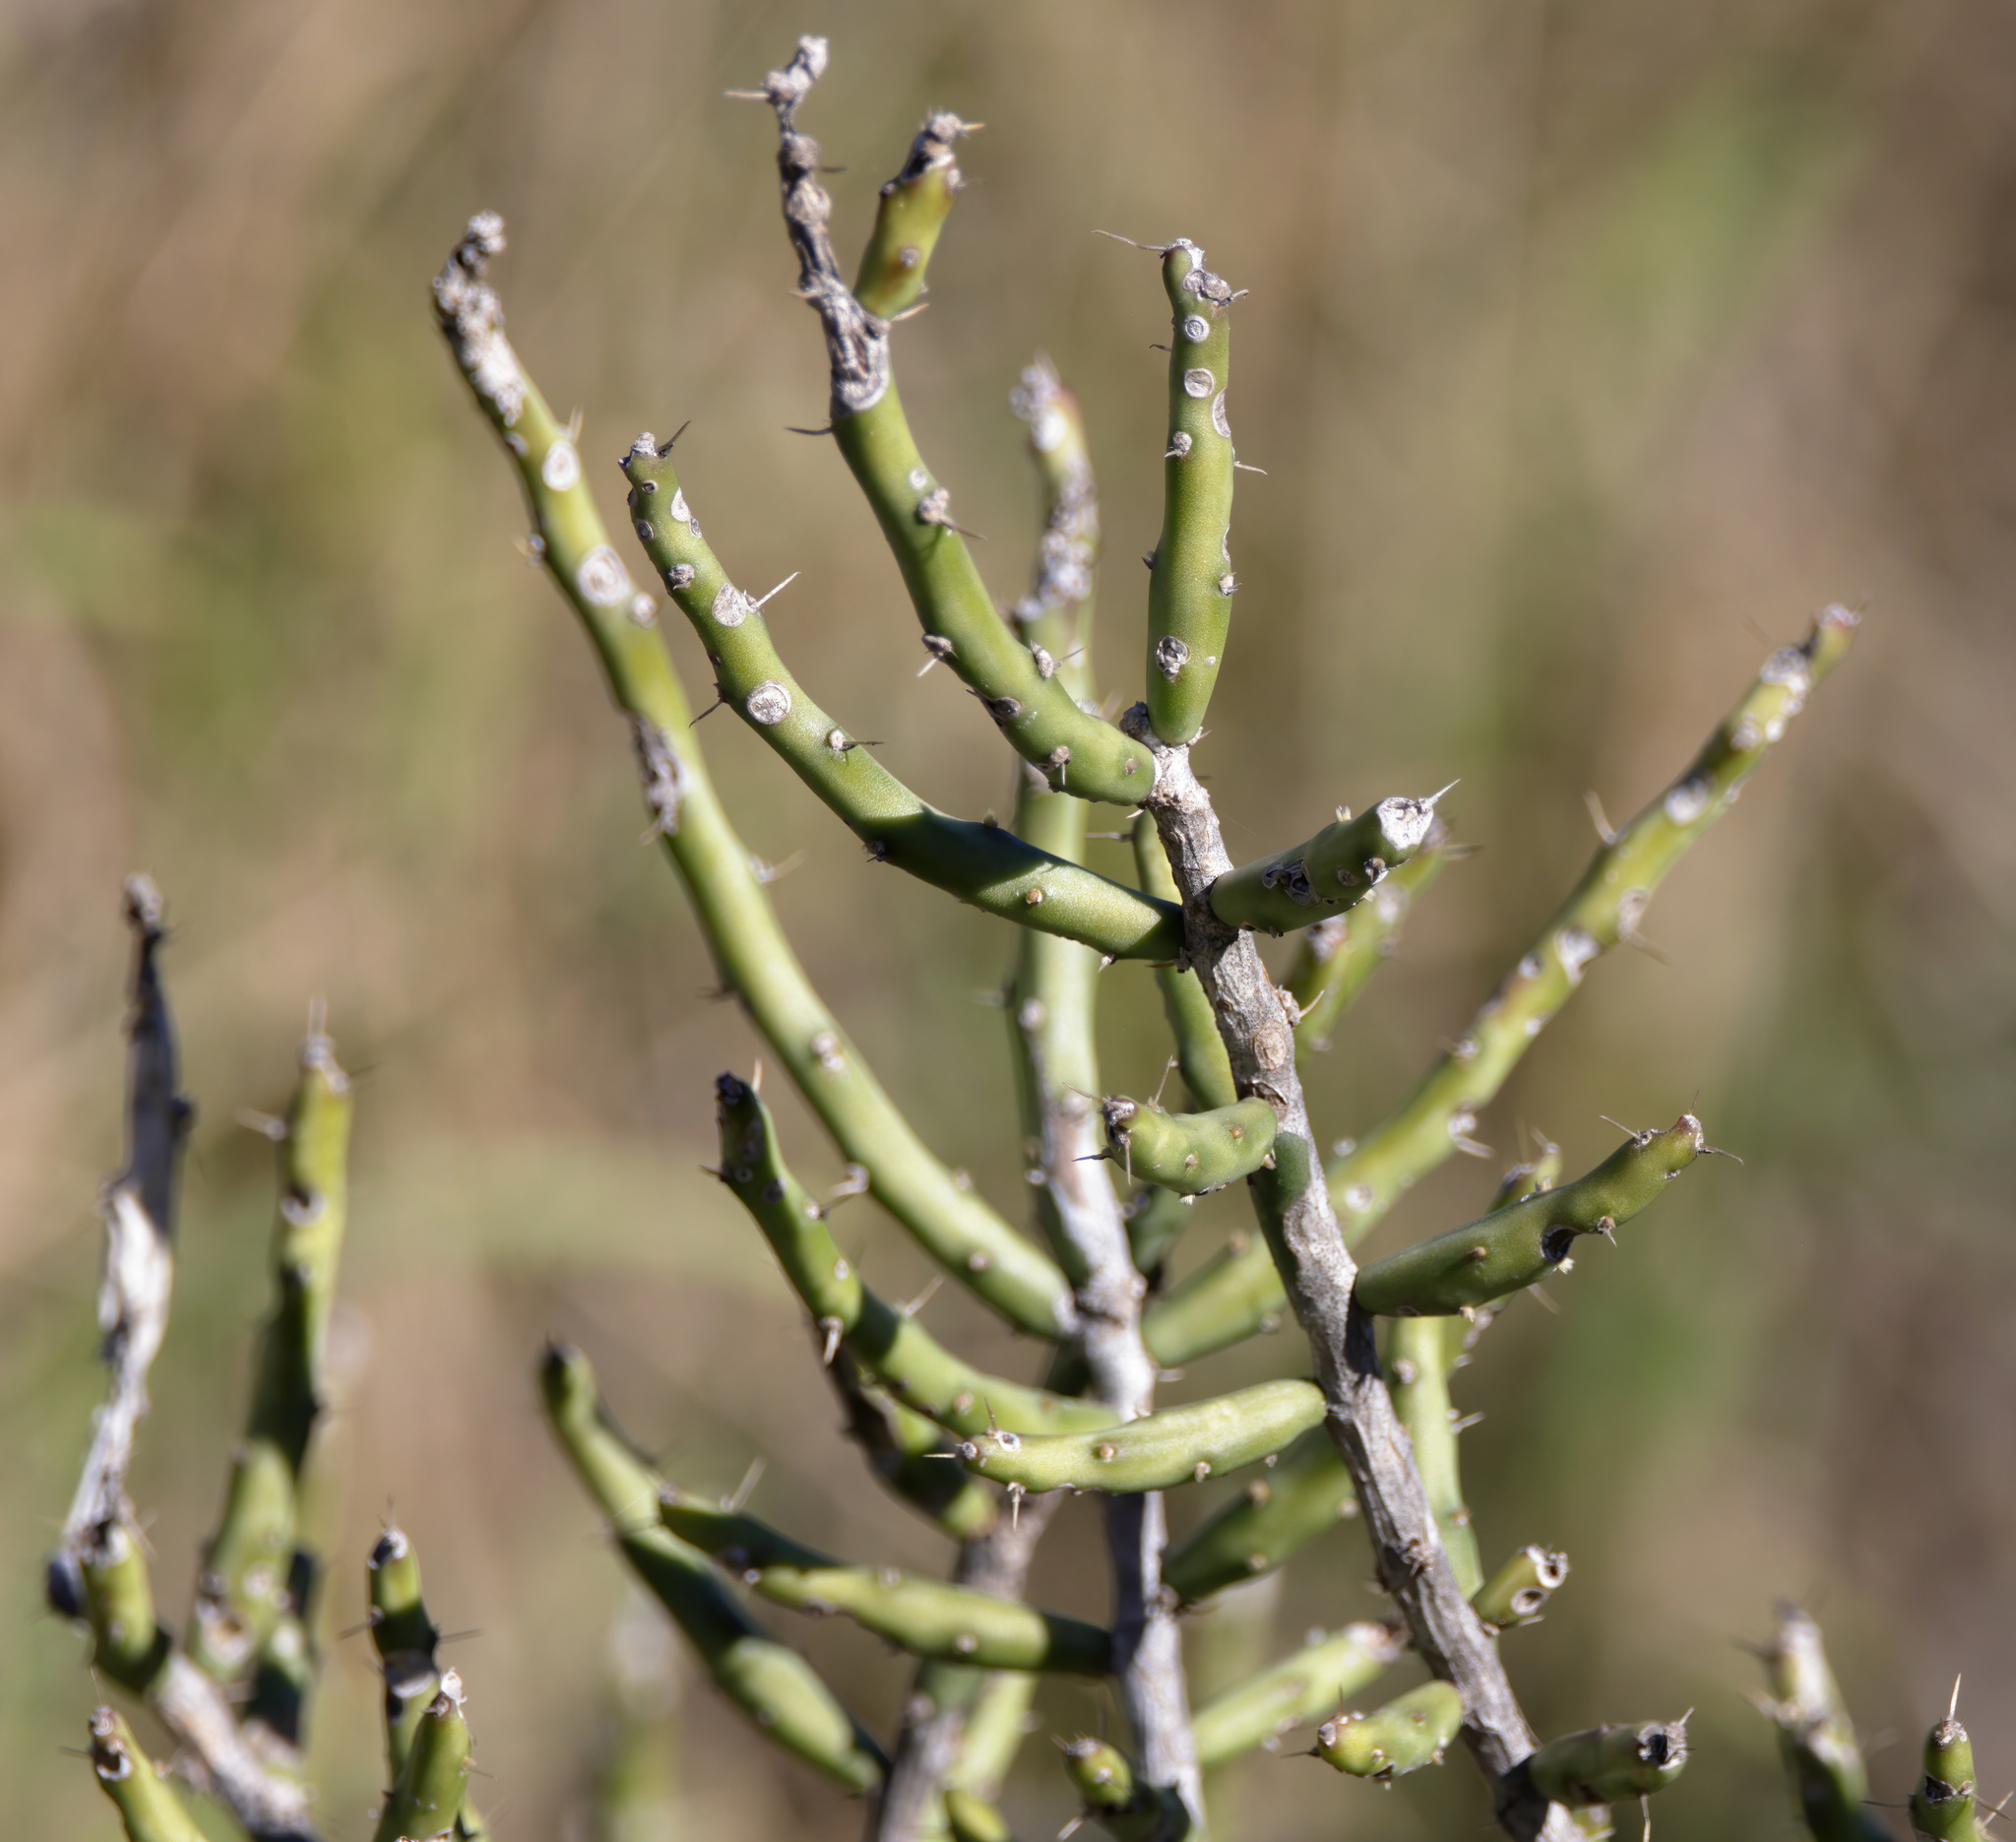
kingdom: Plantae
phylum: Tracheophyta
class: Magnoliopsida
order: Caryophyllales
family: Cactaceae
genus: Cylindropuntia
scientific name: Cylindropuntia leptocaulis
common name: Christmas cactus
